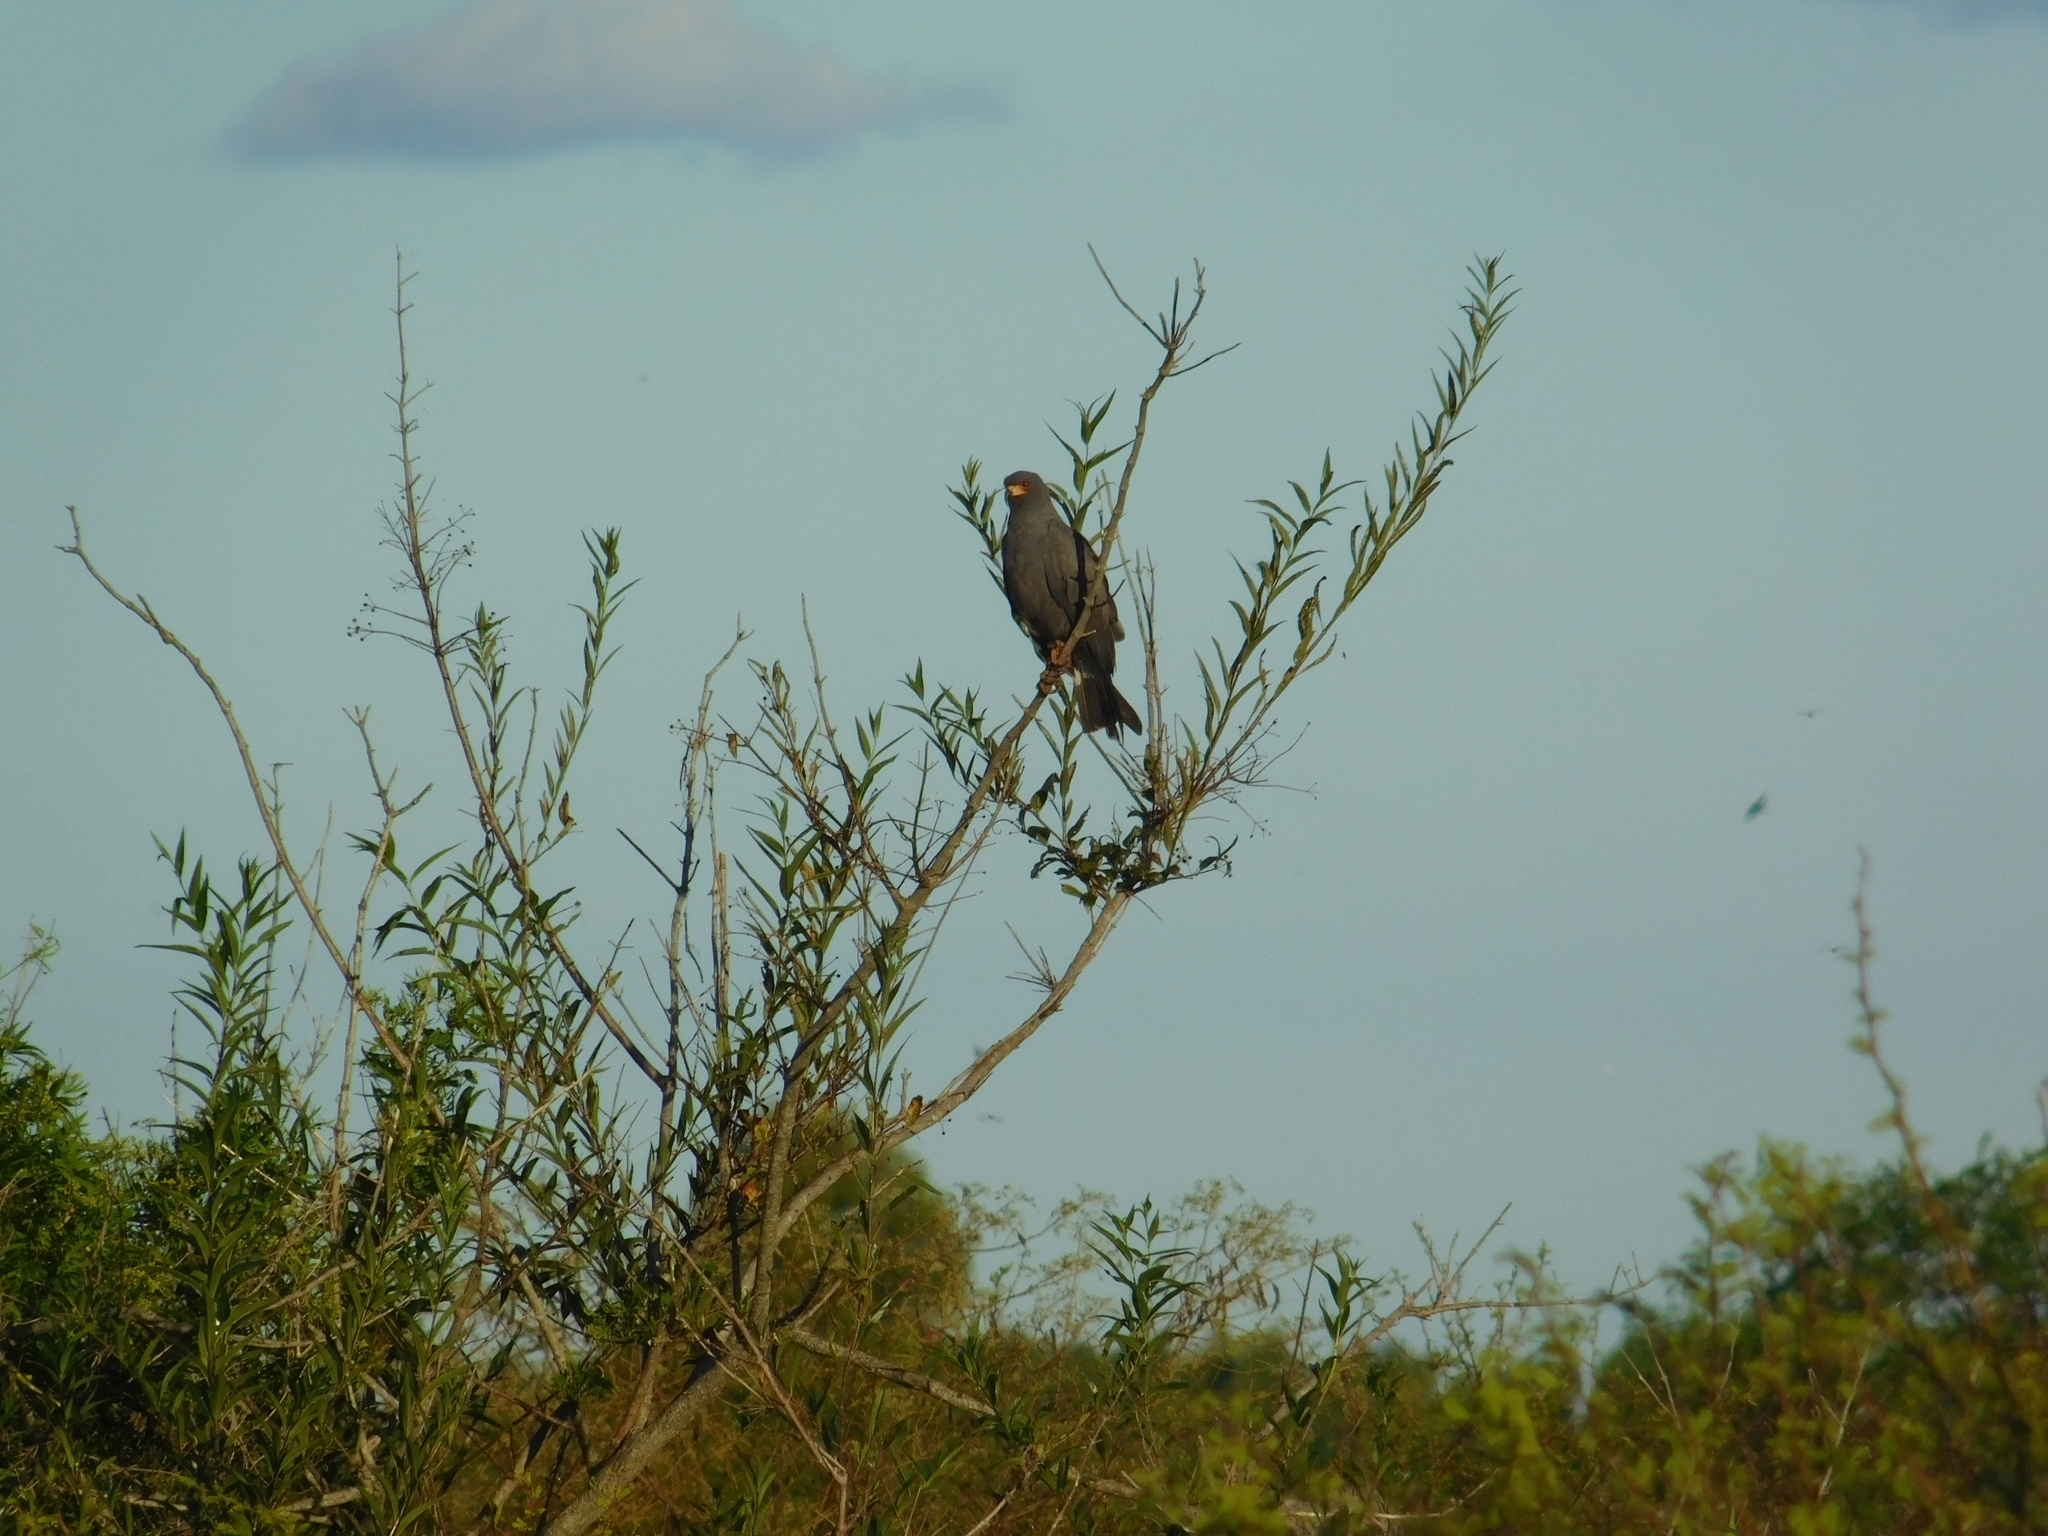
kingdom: Animalia
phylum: Chordata
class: Aves
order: Accipitriformes
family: Accipitridae
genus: Rostrhamus
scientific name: Rostrhamus sociabilis
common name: Snail kite
